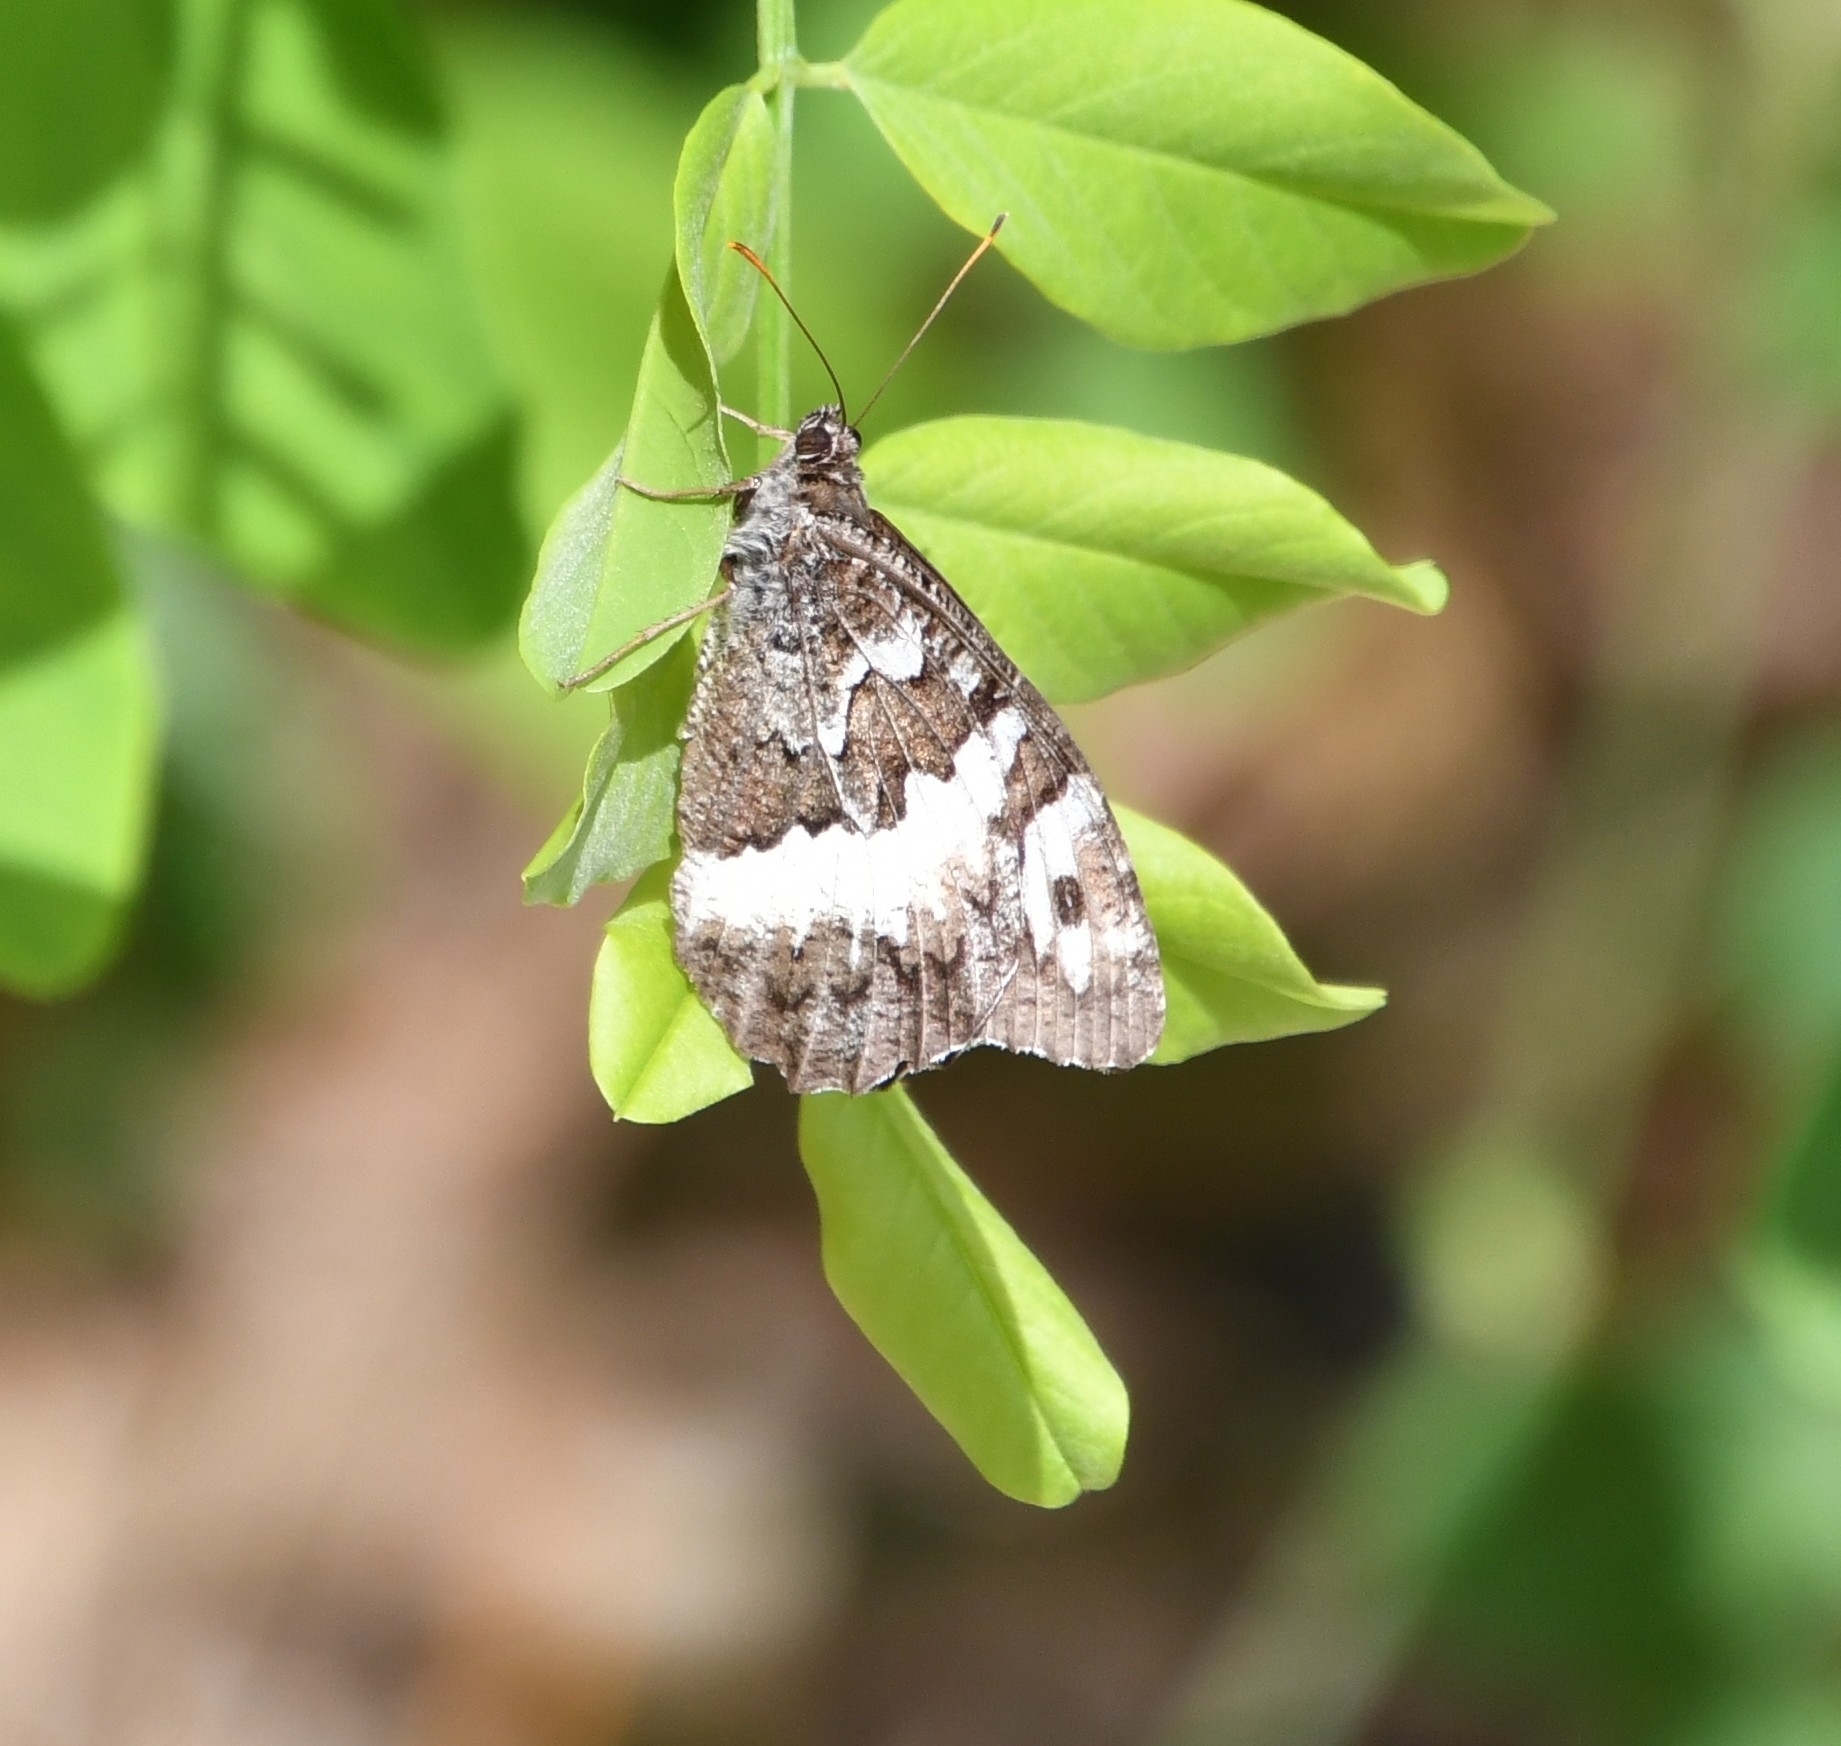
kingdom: Animalia
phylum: Arthropoda
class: Insecta
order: Lepidoptera
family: Lycaenidae
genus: Loweia
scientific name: Loweia tityrus
